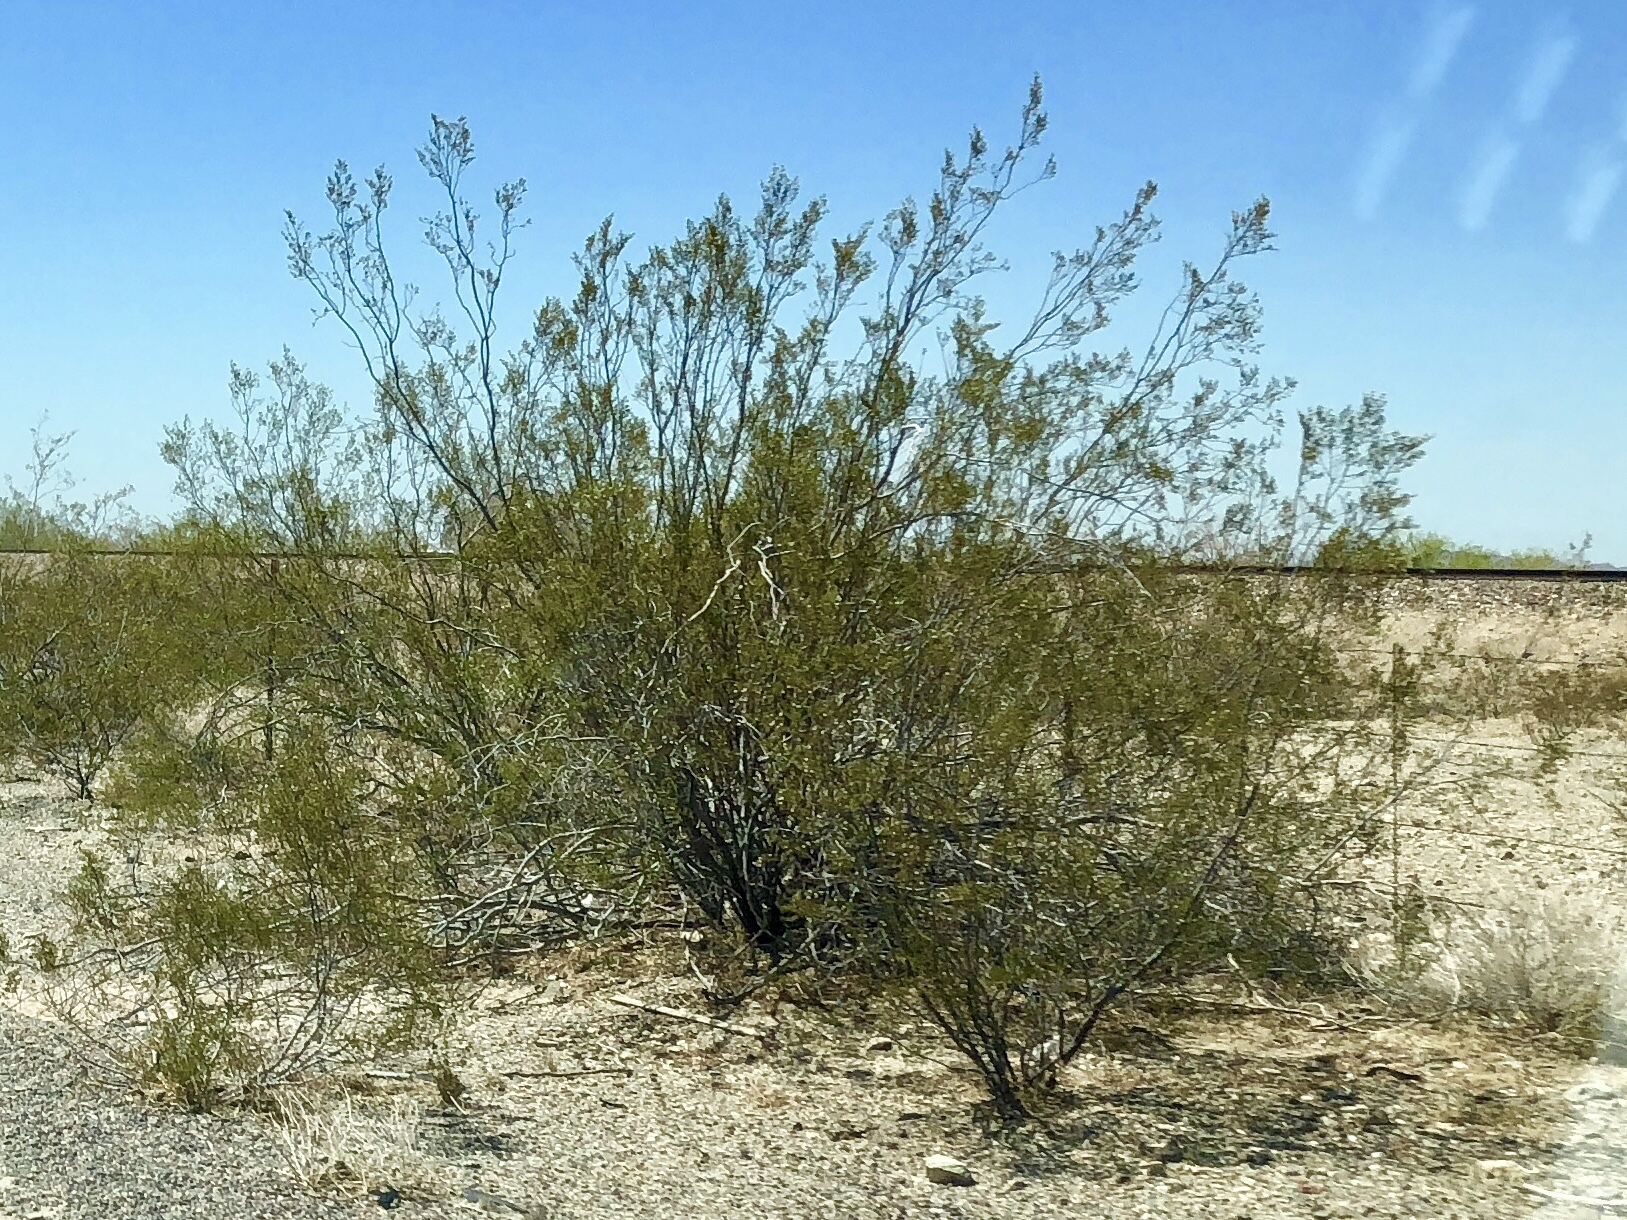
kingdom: Plantae
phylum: Tracheophyta
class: Magnoliopsida
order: Zygophyllales
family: Zygophyllaceae
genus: Larrea
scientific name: Larrea tridentata
